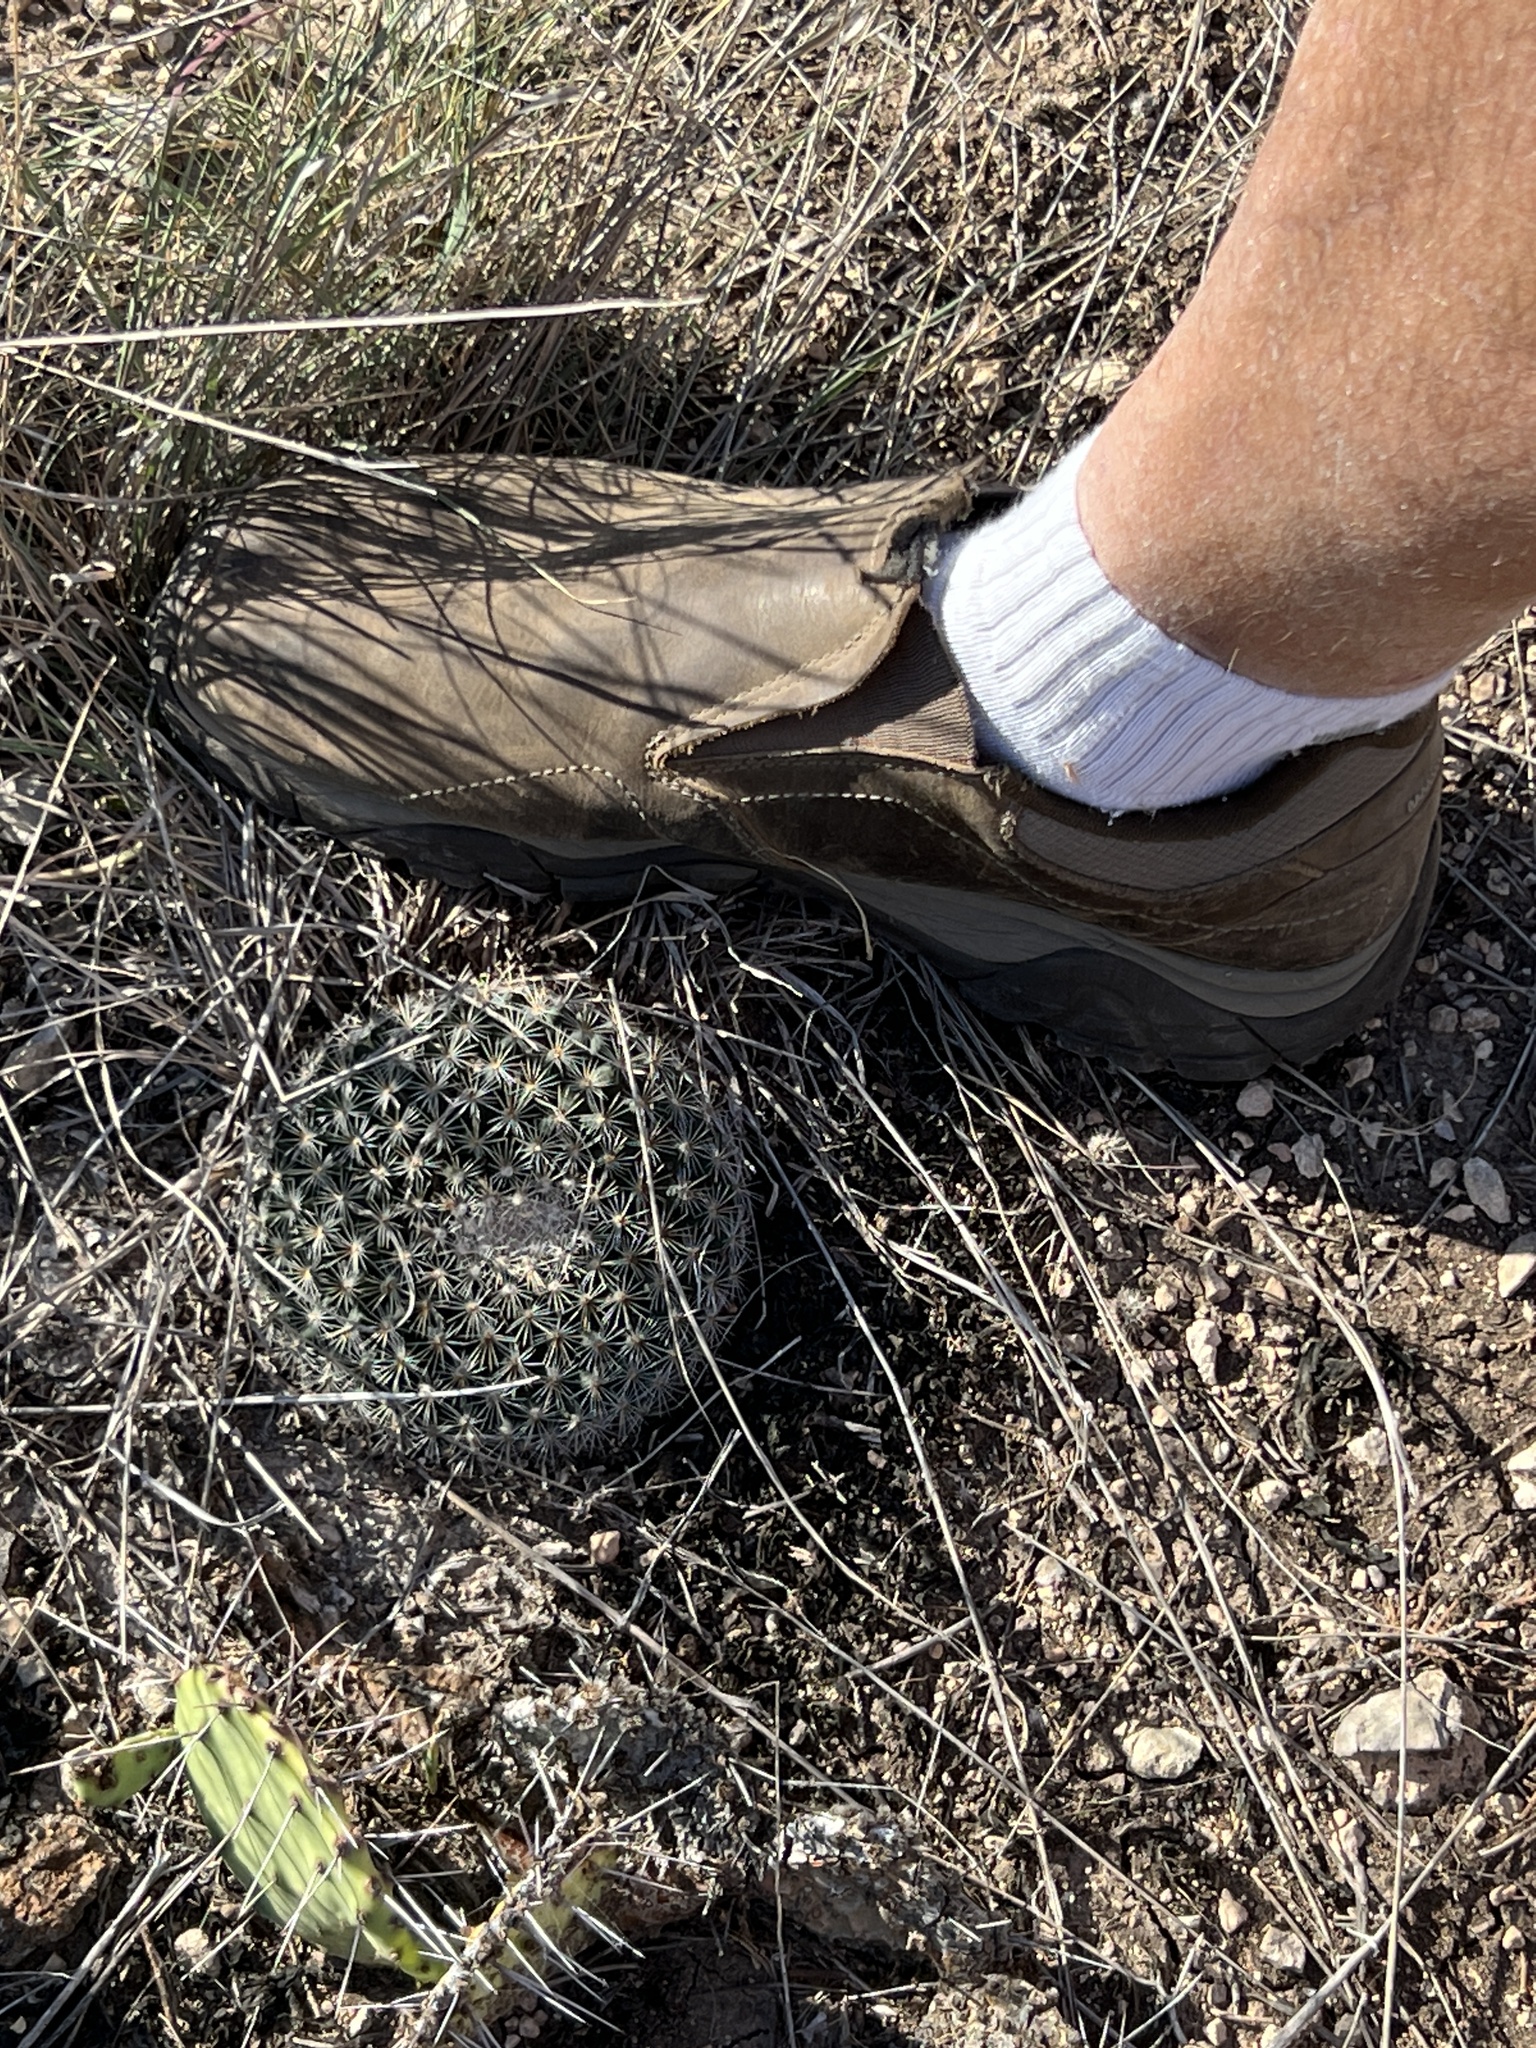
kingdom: Plantae
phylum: Tracheophyta
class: Magnoliopsida
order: Caryophyllales
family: Cactaceae
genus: Mammillaria
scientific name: Mammillaria heyderi
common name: Little nipple cactus
